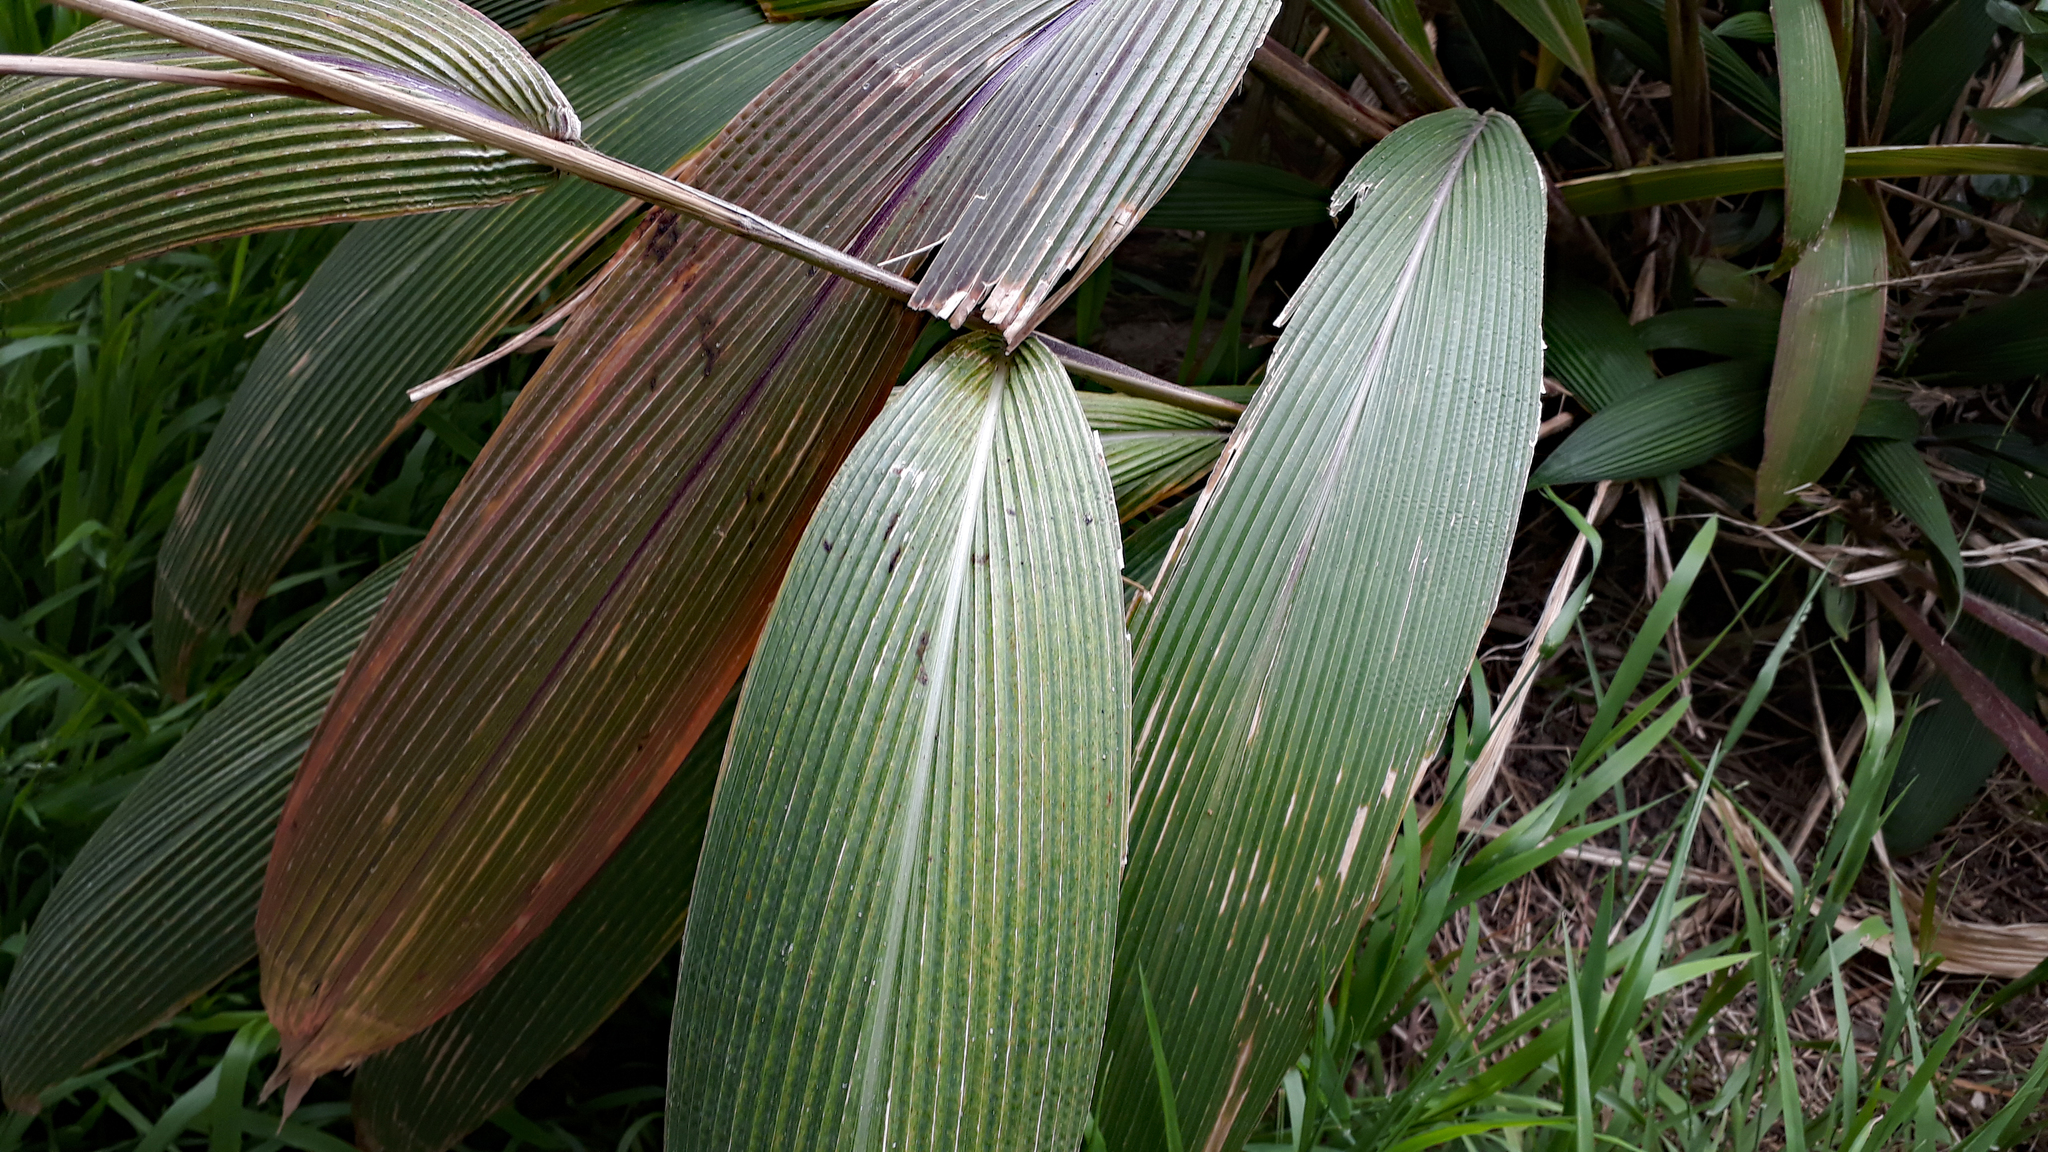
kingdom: Plantae
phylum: Tracheophyta
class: Liliopsida
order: Poales
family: Poaceae
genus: Setaria
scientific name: Setaria palmifolia
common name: Broadleaved bristlegrass
